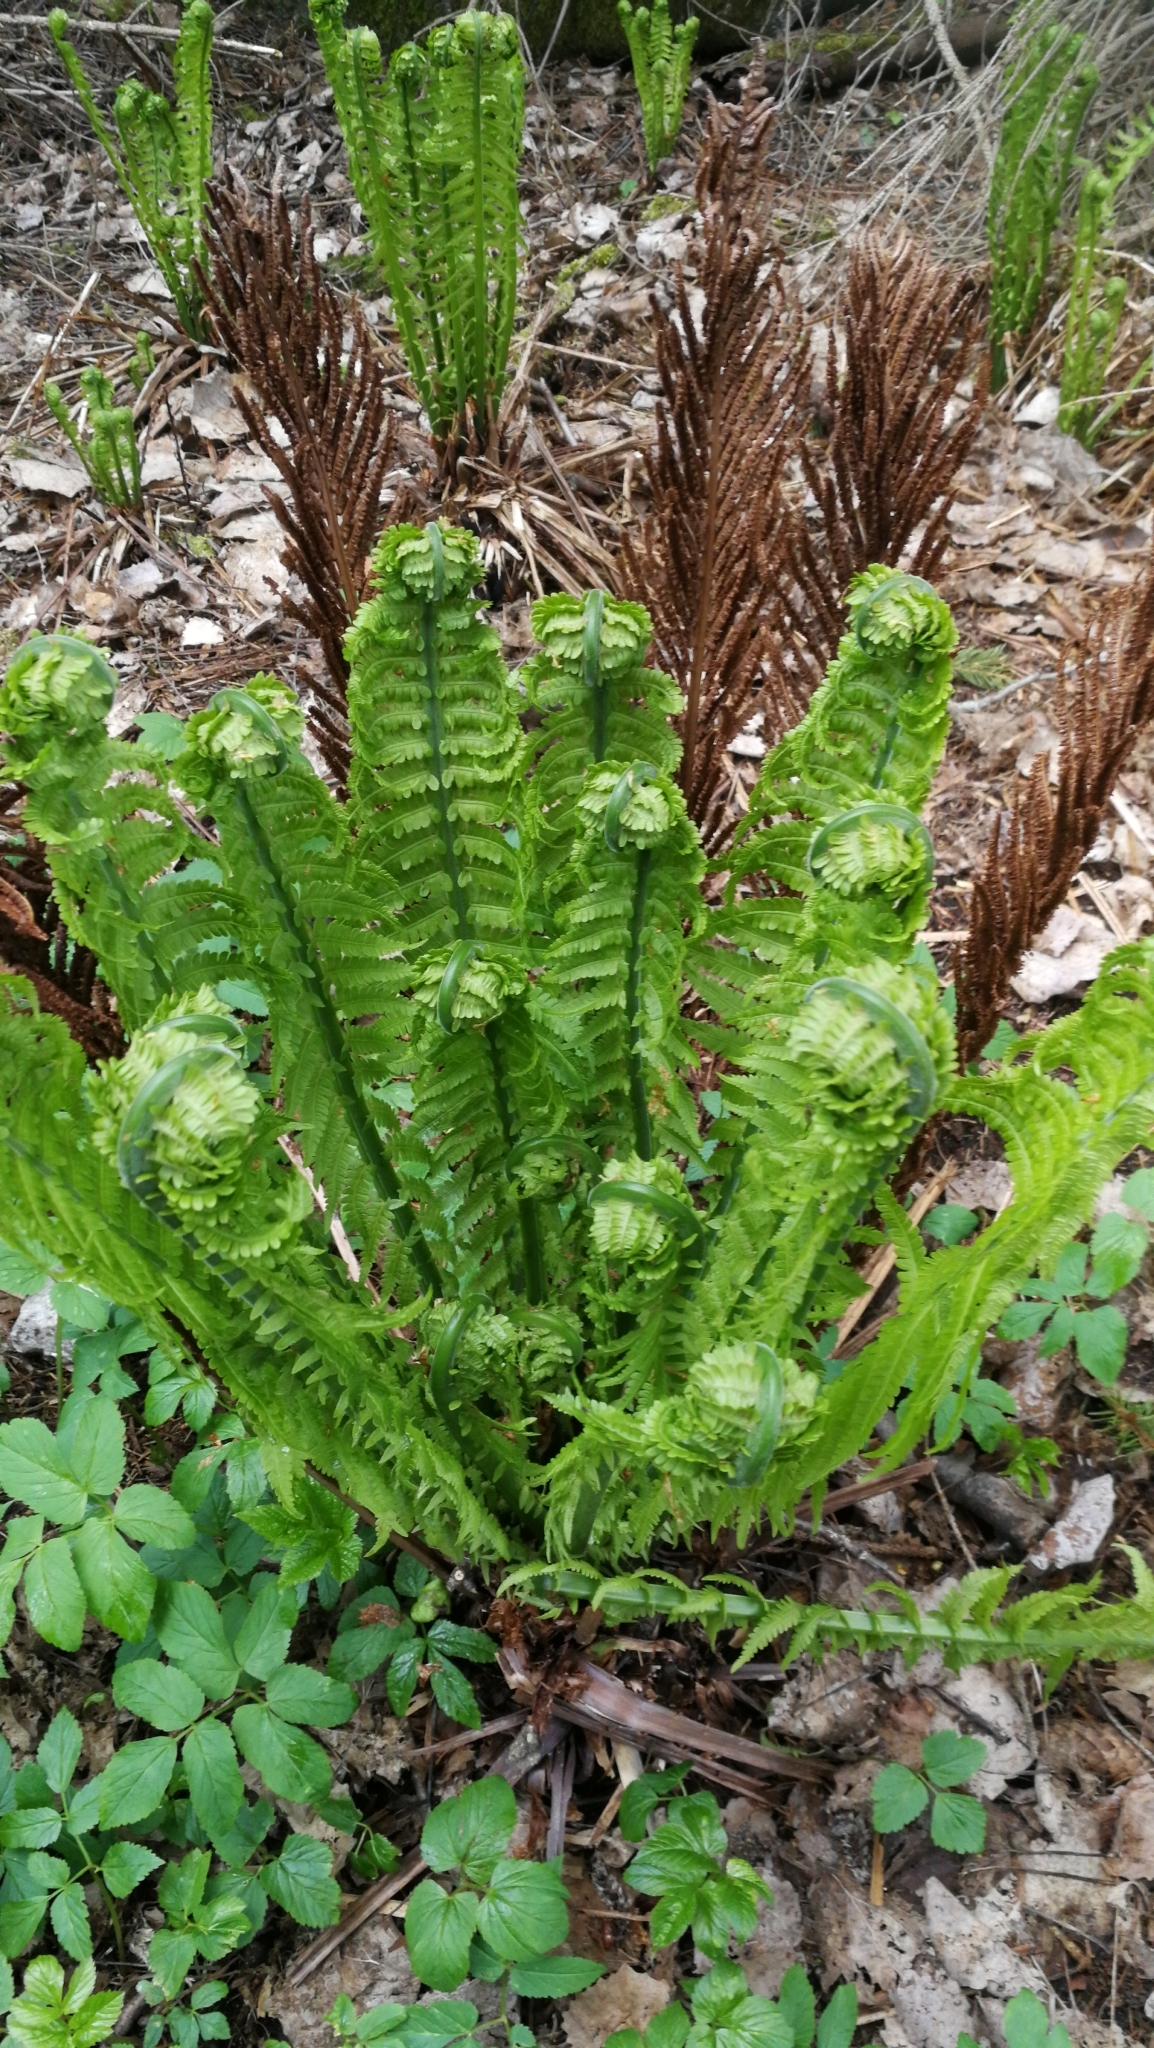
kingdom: Plantae
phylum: Tracheophyta
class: Polypodiopsida
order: Polypodiales
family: Onocleaceae
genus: Matteuccia
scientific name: Matteuccia struthiopteris
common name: Ostrich fern
